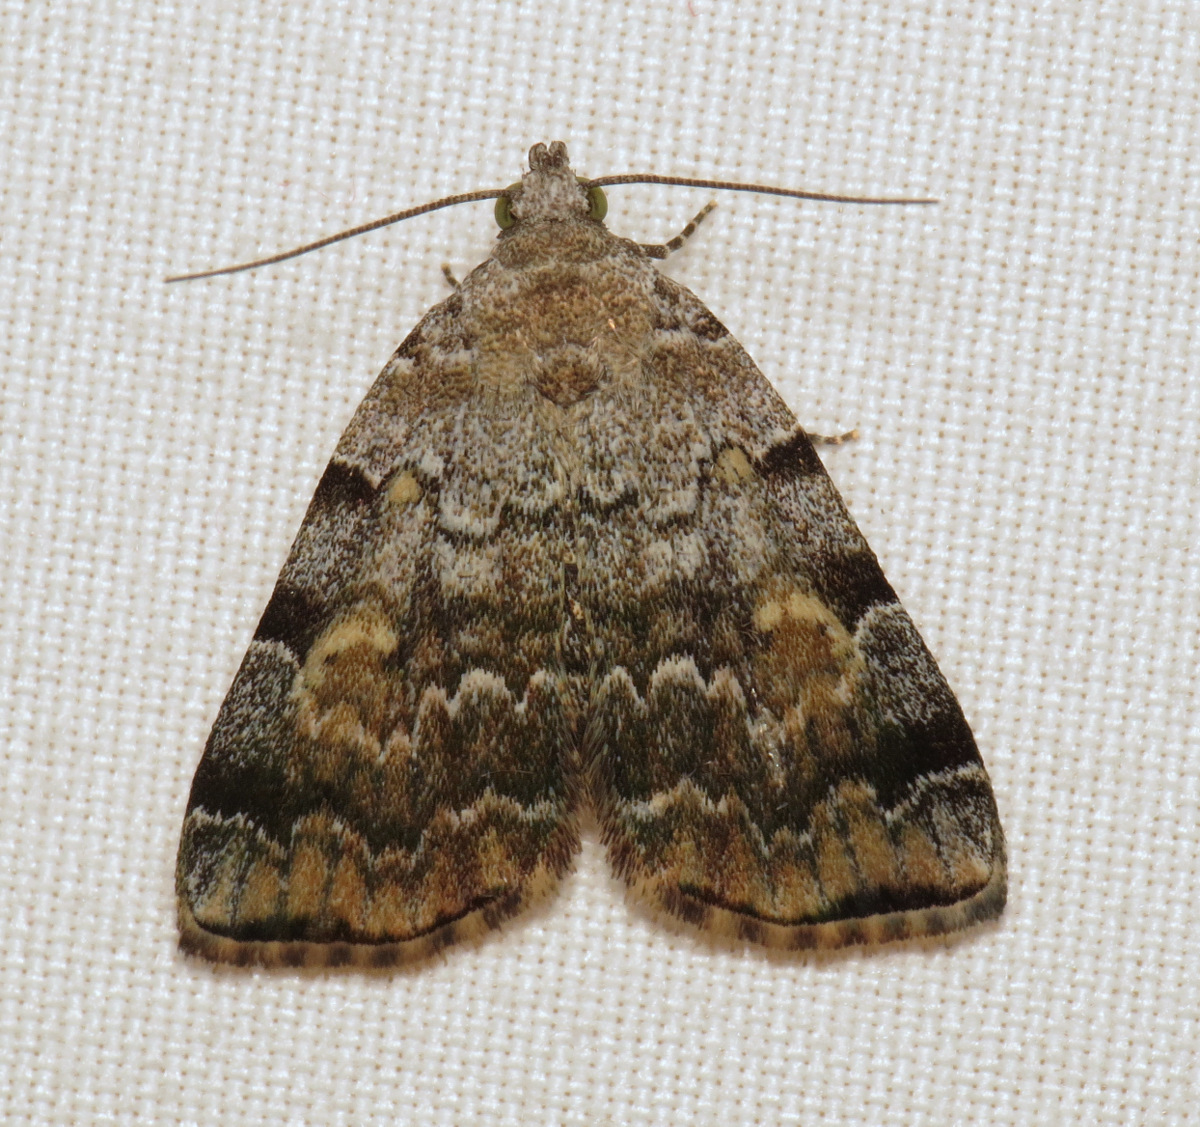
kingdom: Animalia
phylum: Arthropoda
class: Insecta
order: Lepidoptera
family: Erebidae
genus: Idia
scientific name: Idia americalis
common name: American idia moth
